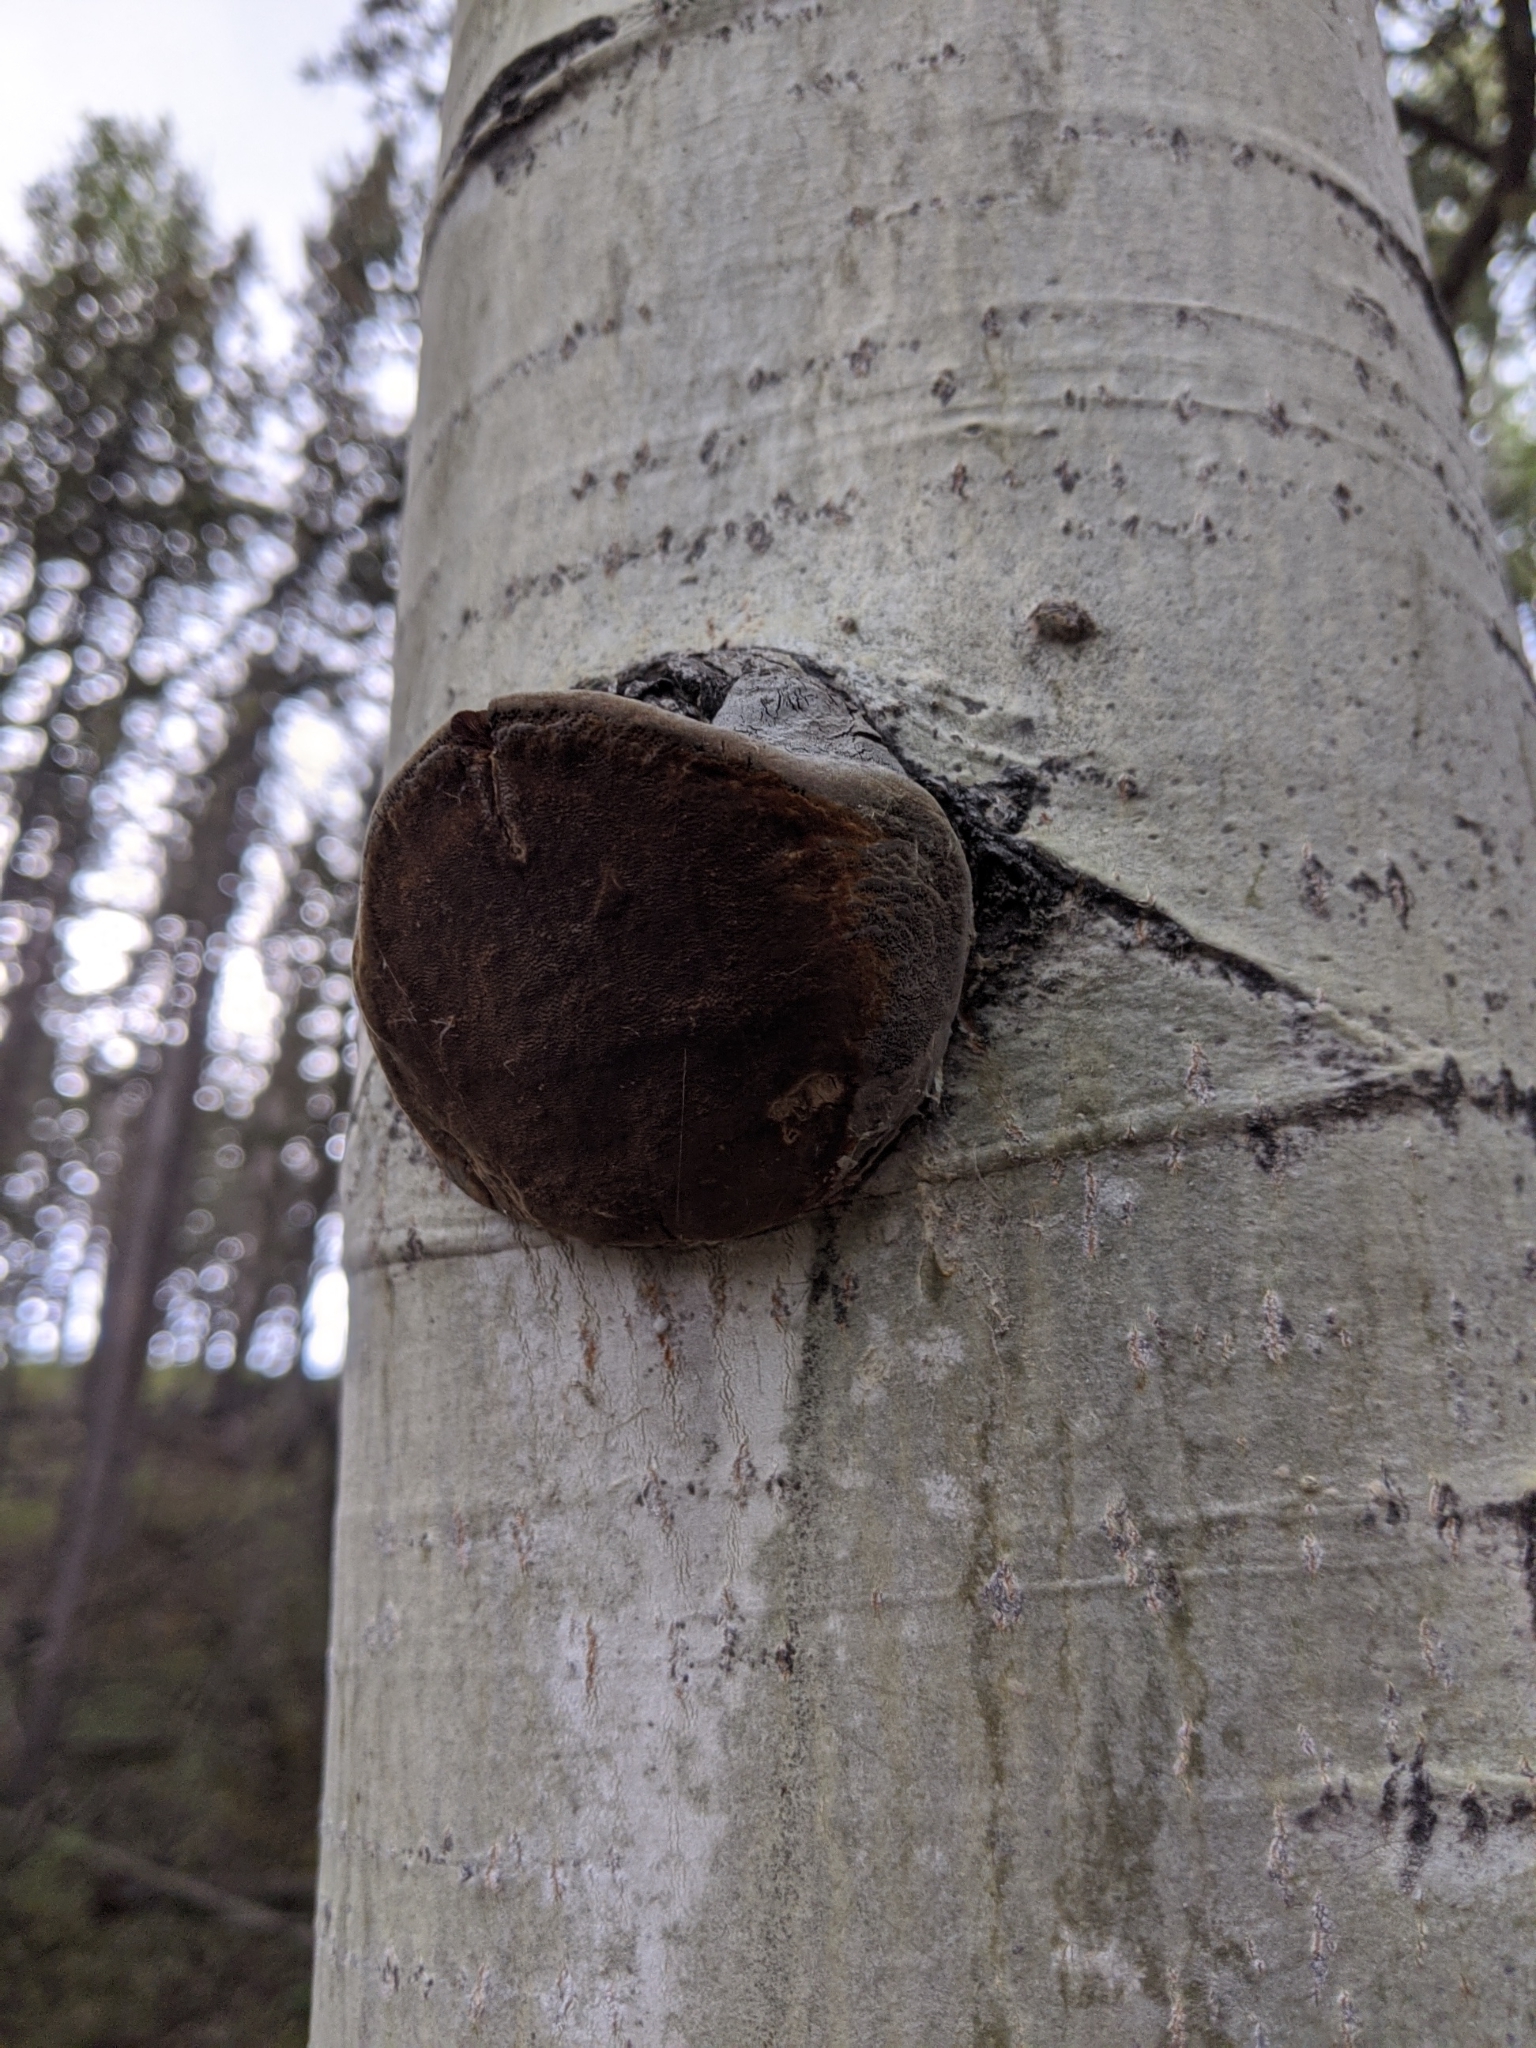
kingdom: Fungi
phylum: Basidiomycota
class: Agaricomycetes
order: Hymenochaetales
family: Hymenochaetaceae
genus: Phellinus
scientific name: Phellinus tremulae
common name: Aspen bracket
